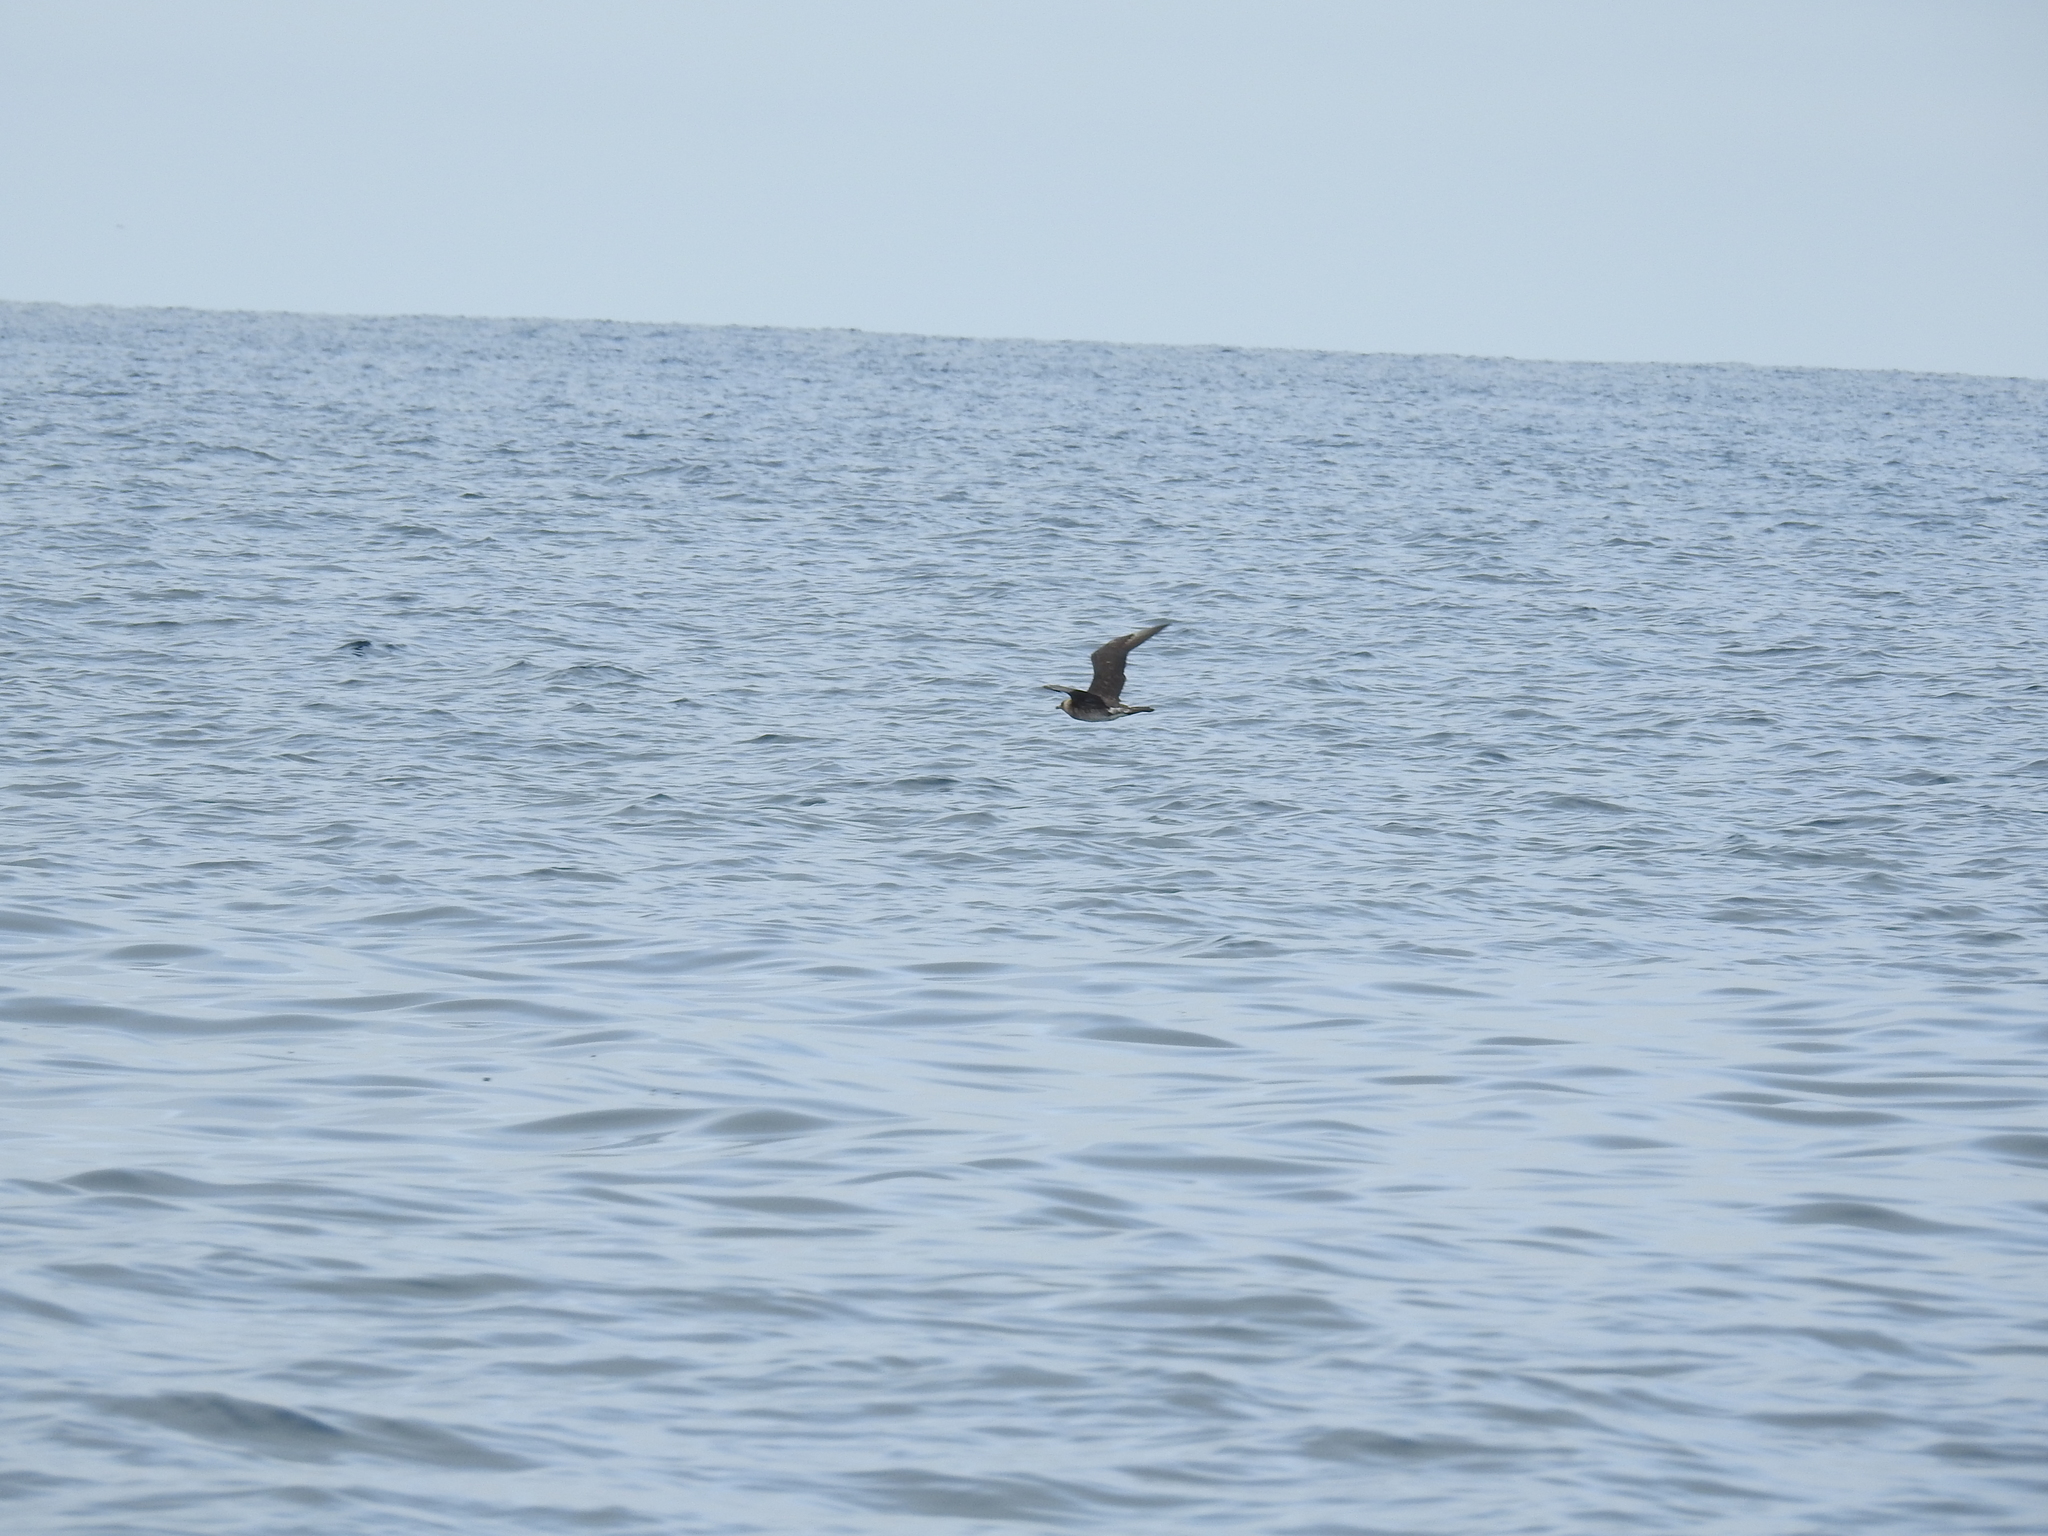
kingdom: Animalia
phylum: Chordata
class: Aves
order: Charadriiformes
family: Stercorariidae
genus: Stercorarius
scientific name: Stercorarius pomarinus
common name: Pomarine jaeger
